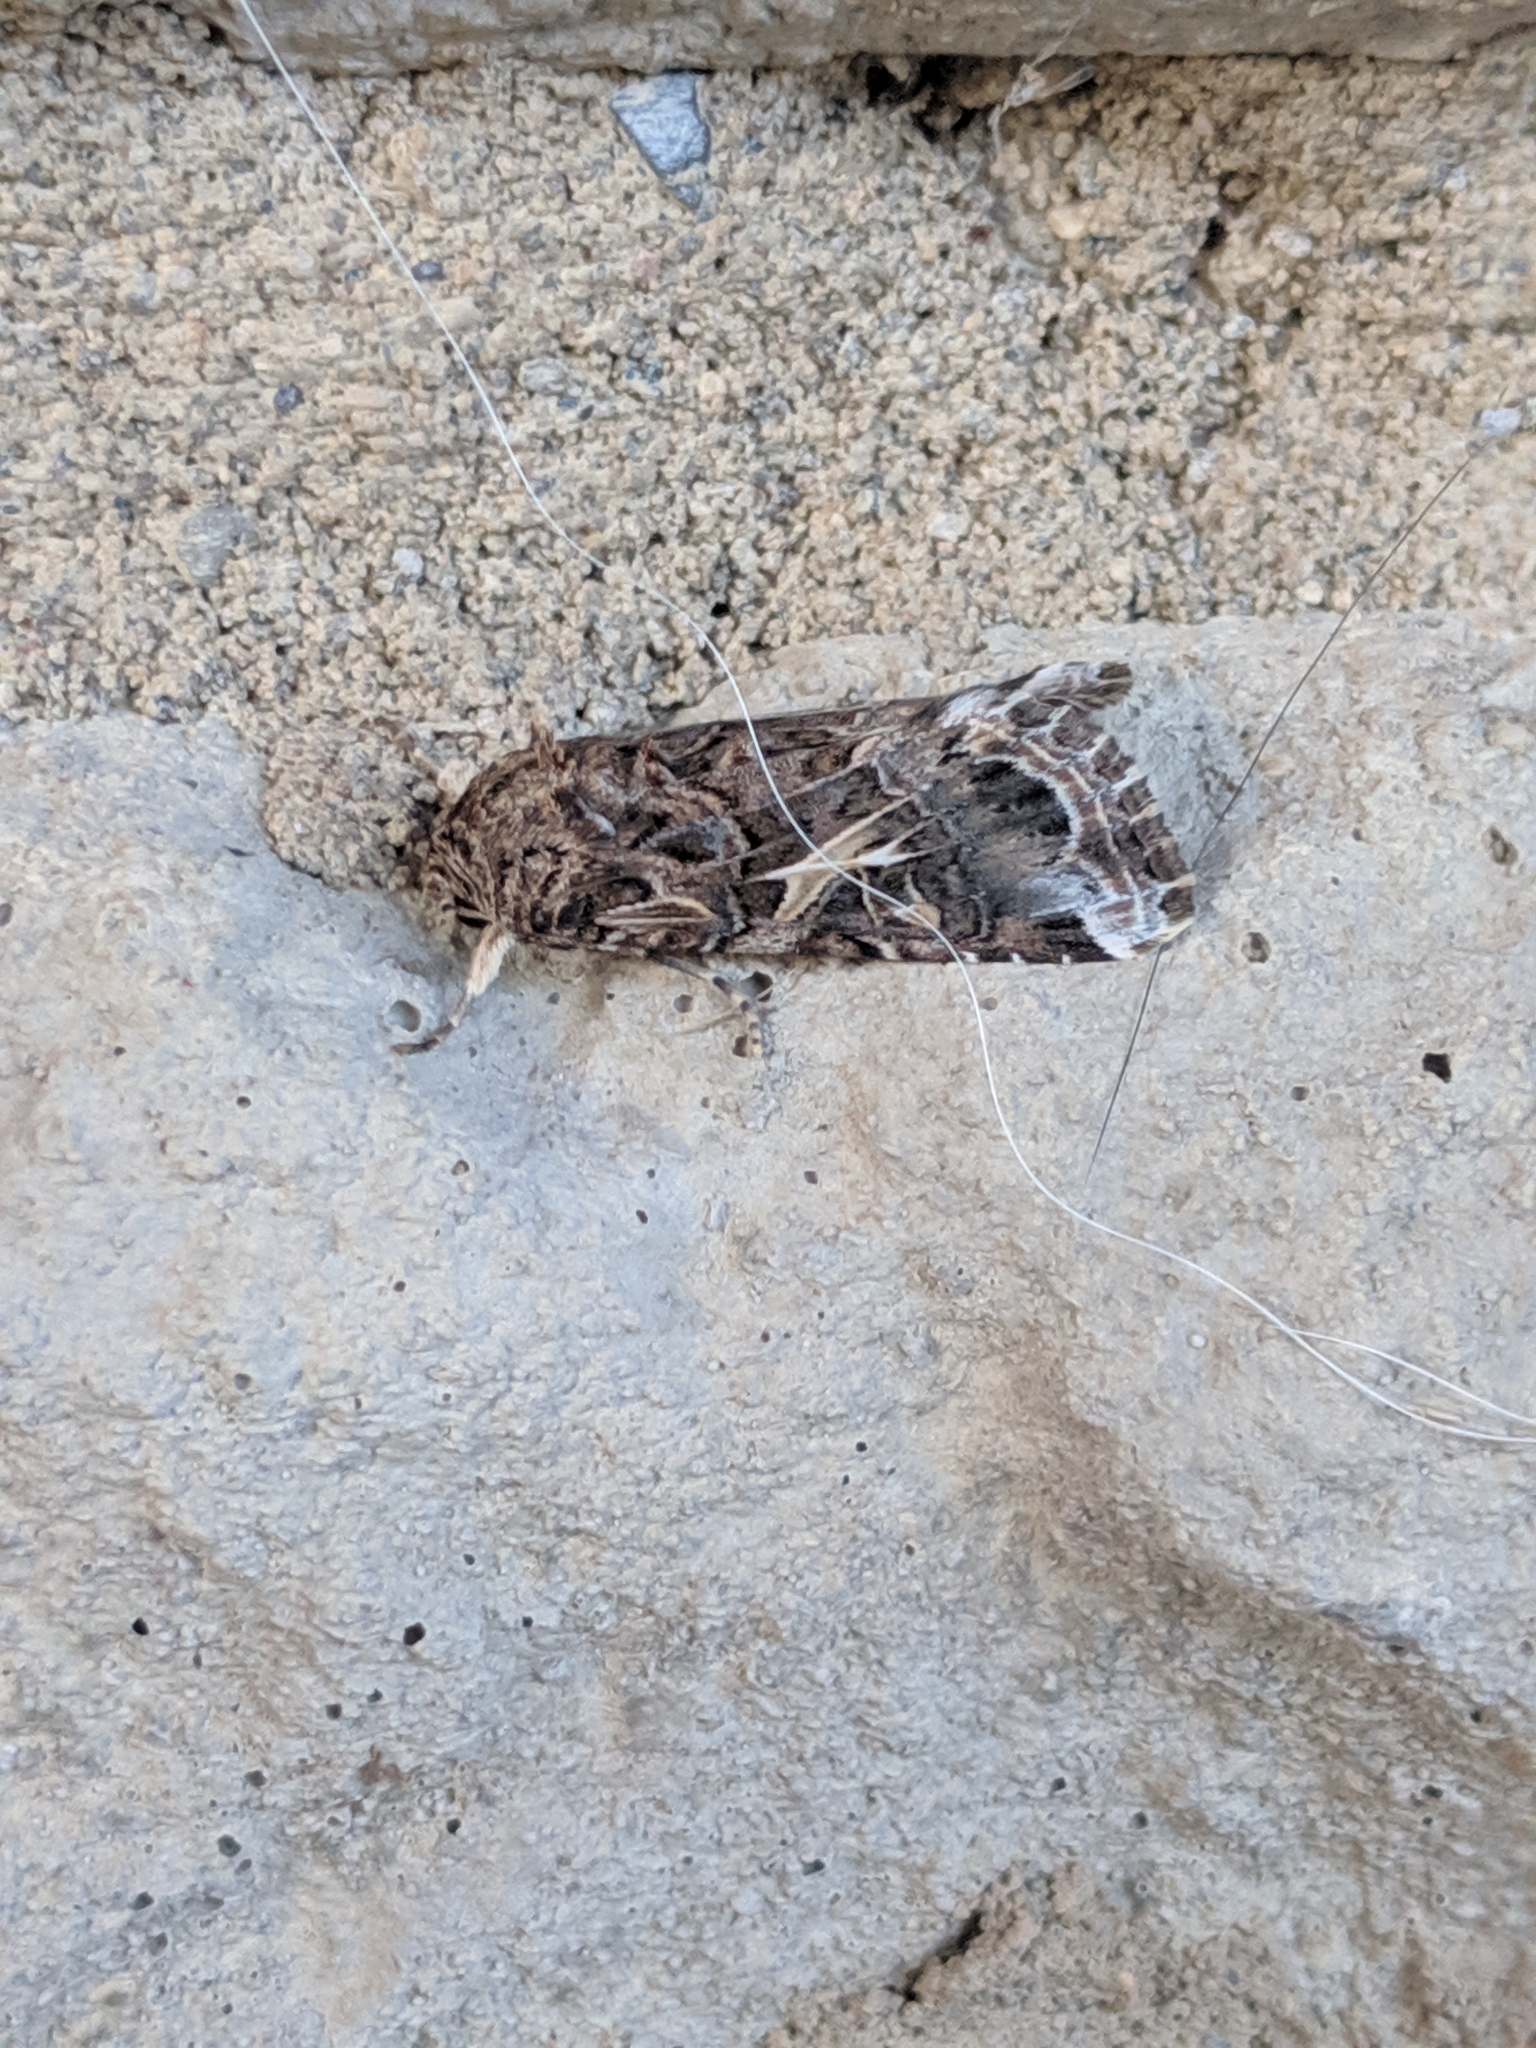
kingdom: Animalia
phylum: Arthropoda
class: Insecta
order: Lepidoptera
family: Noctuidae
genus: Spodoptera
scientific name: Spodoptera ornithogalli
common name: Yellow-striped armyworm
